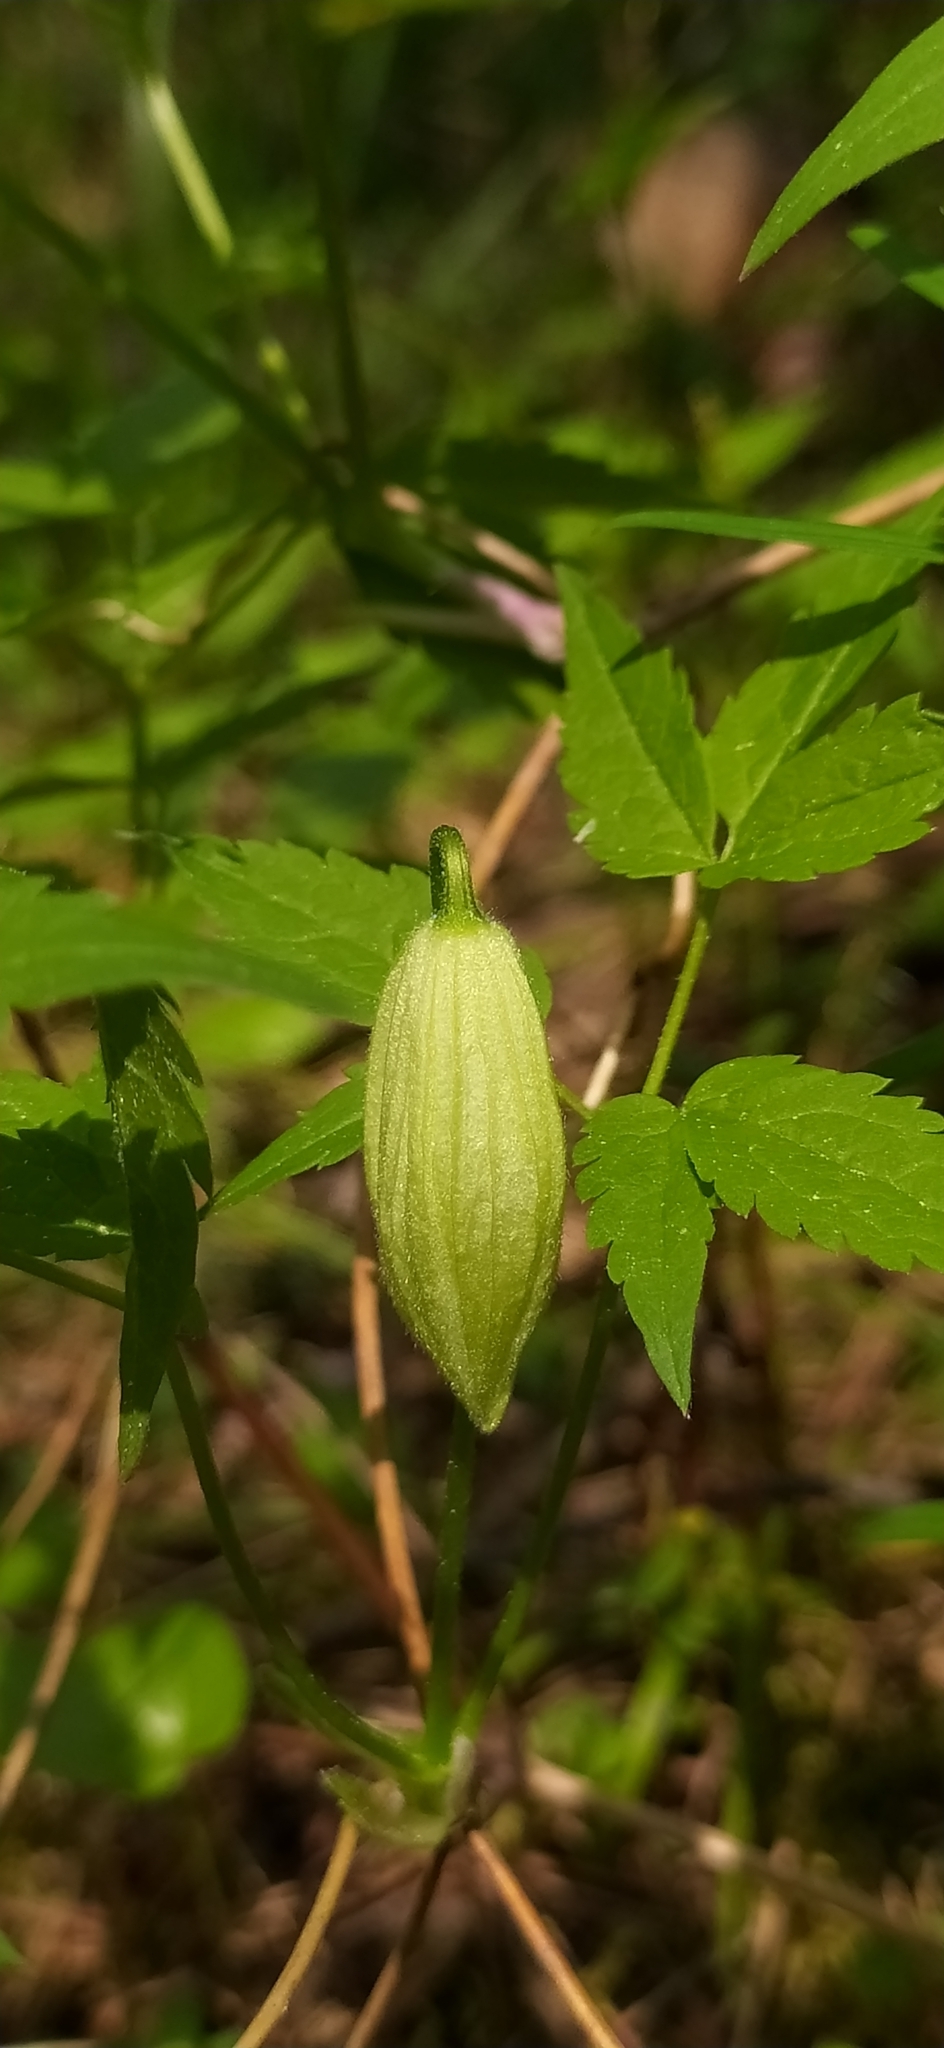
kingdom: Plantae
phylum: Tracheophyta
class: Magnoliopsida
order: Ranunculales
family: Ranunculaceae
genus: Clematis
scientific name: Clematis sibirica
